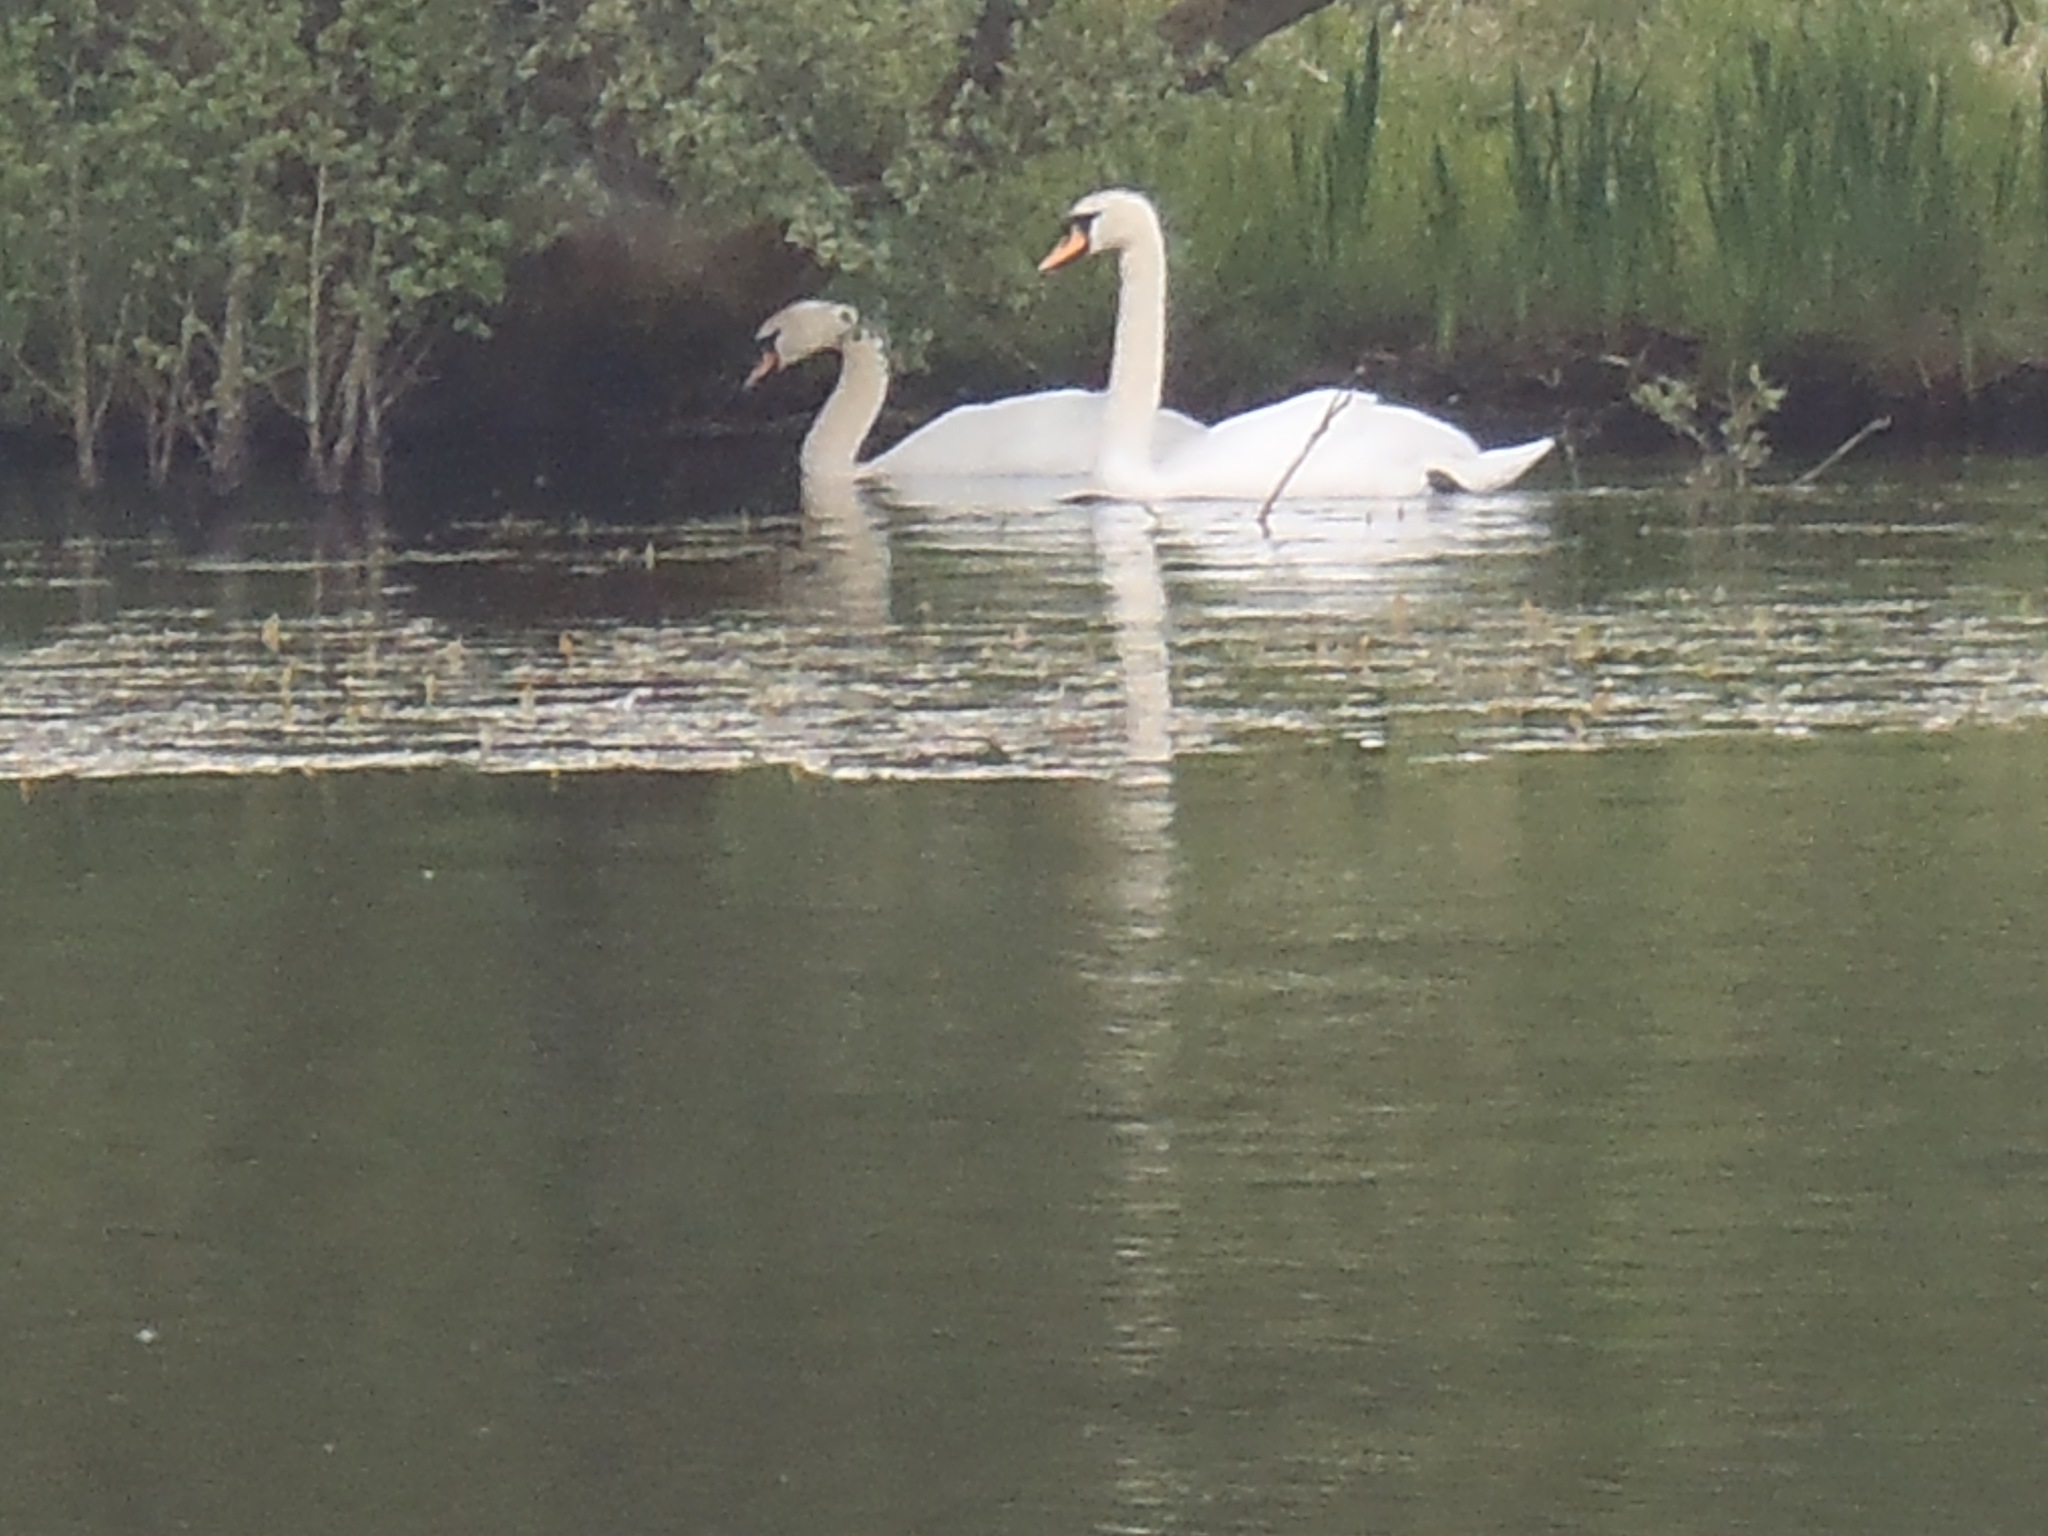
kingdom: Animalia
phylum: Chordata
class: Aves
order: Anseriformes
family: Anatidae
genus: Cygnus
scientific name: Cygnus olor
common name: Mute swan
